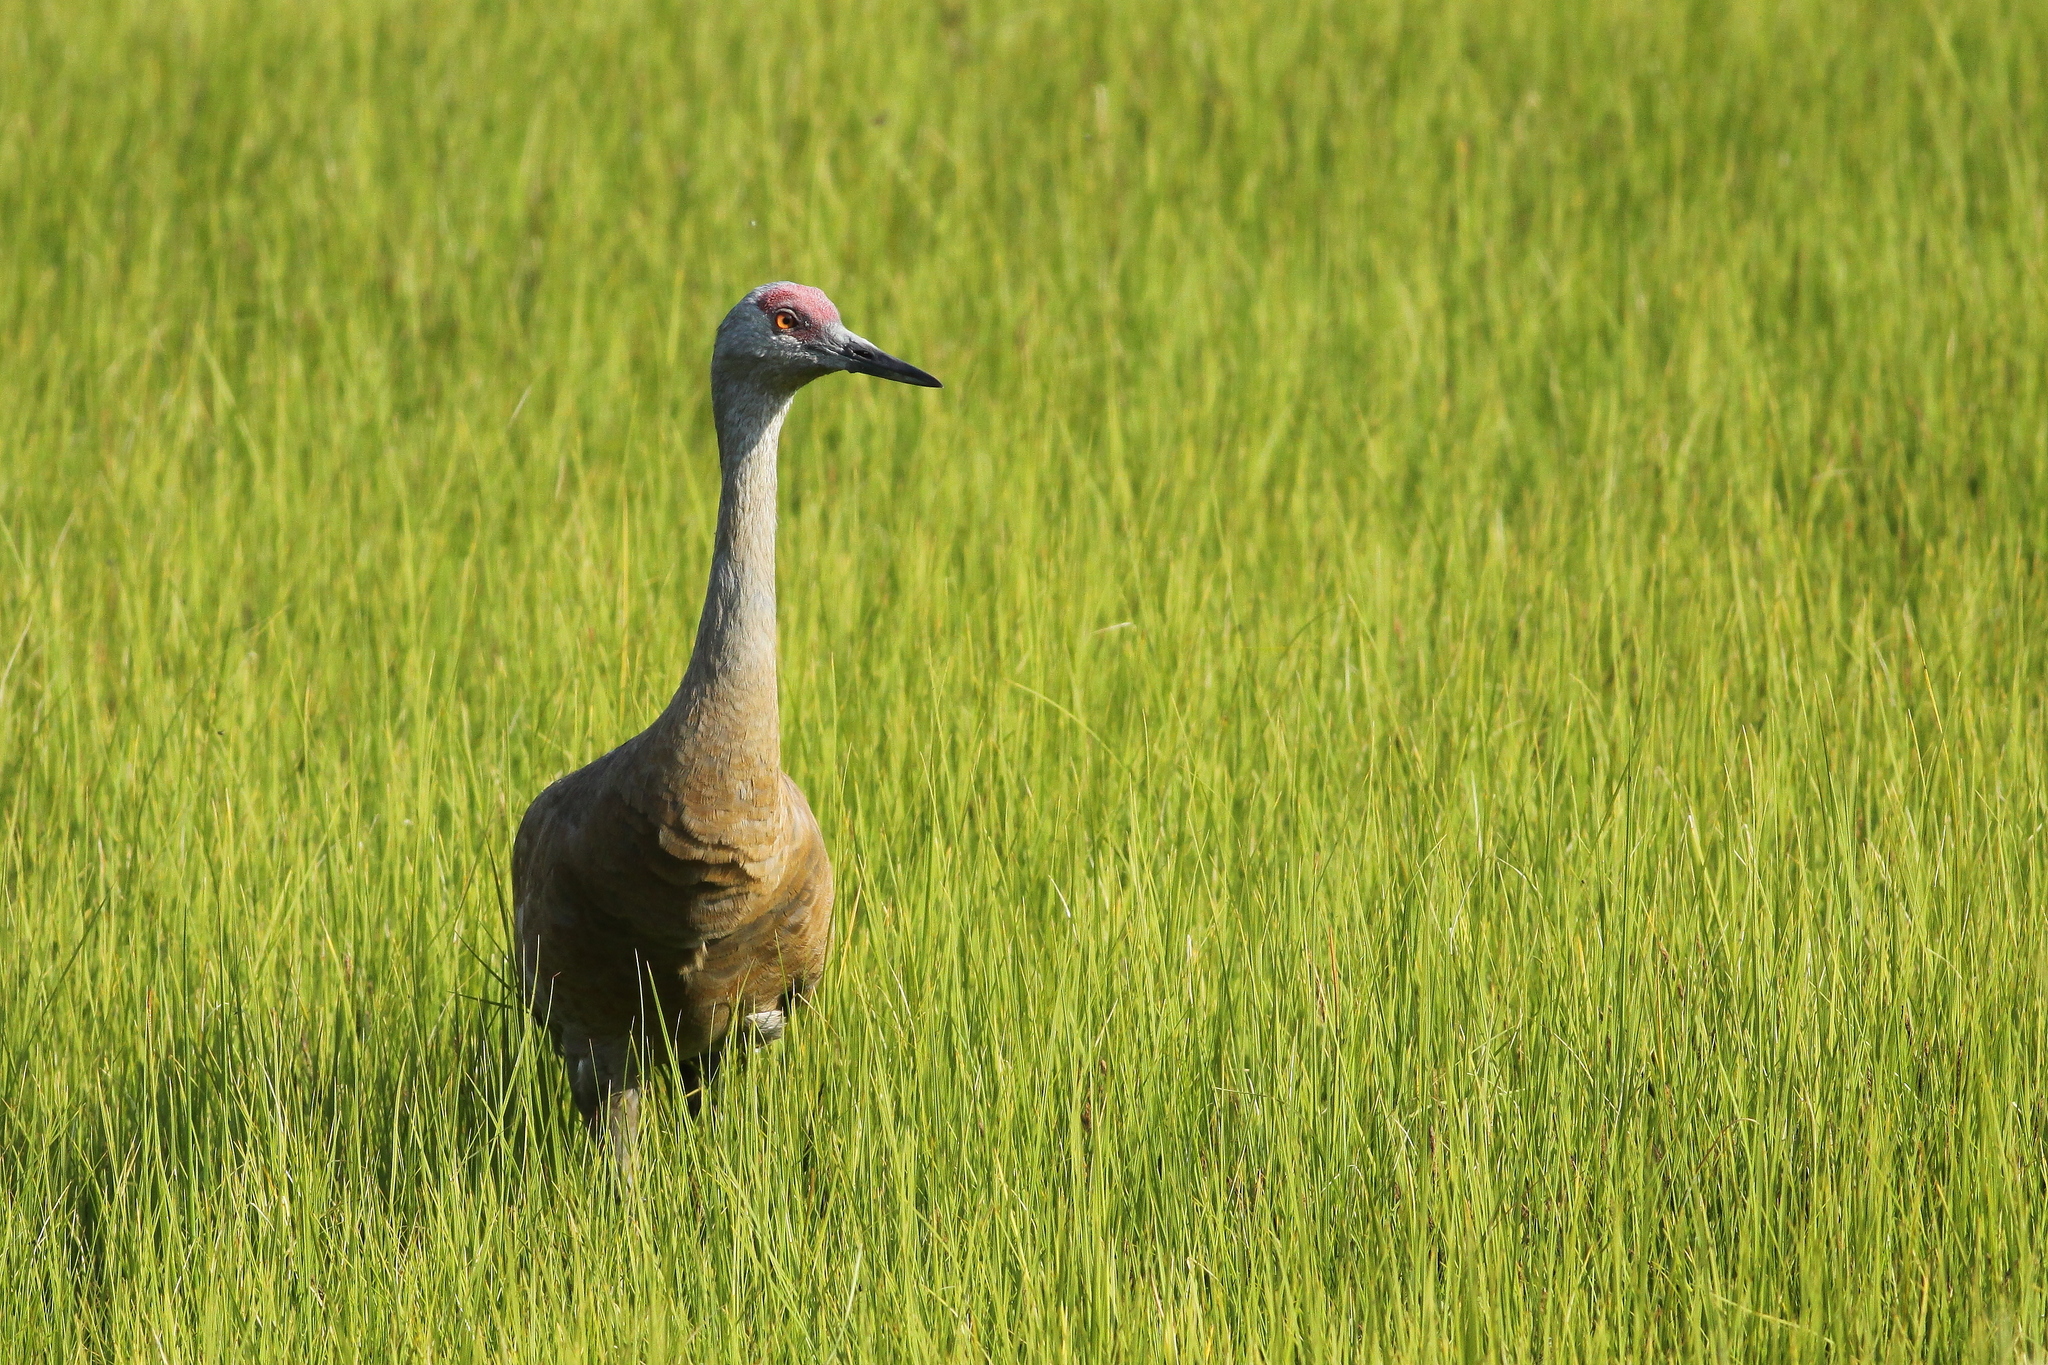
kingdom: Animalia
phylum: Chordata
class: Aves
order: Gruiformes
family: Gruidae
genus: Grus
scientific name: Grus canadensis
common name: Sandhill crane
